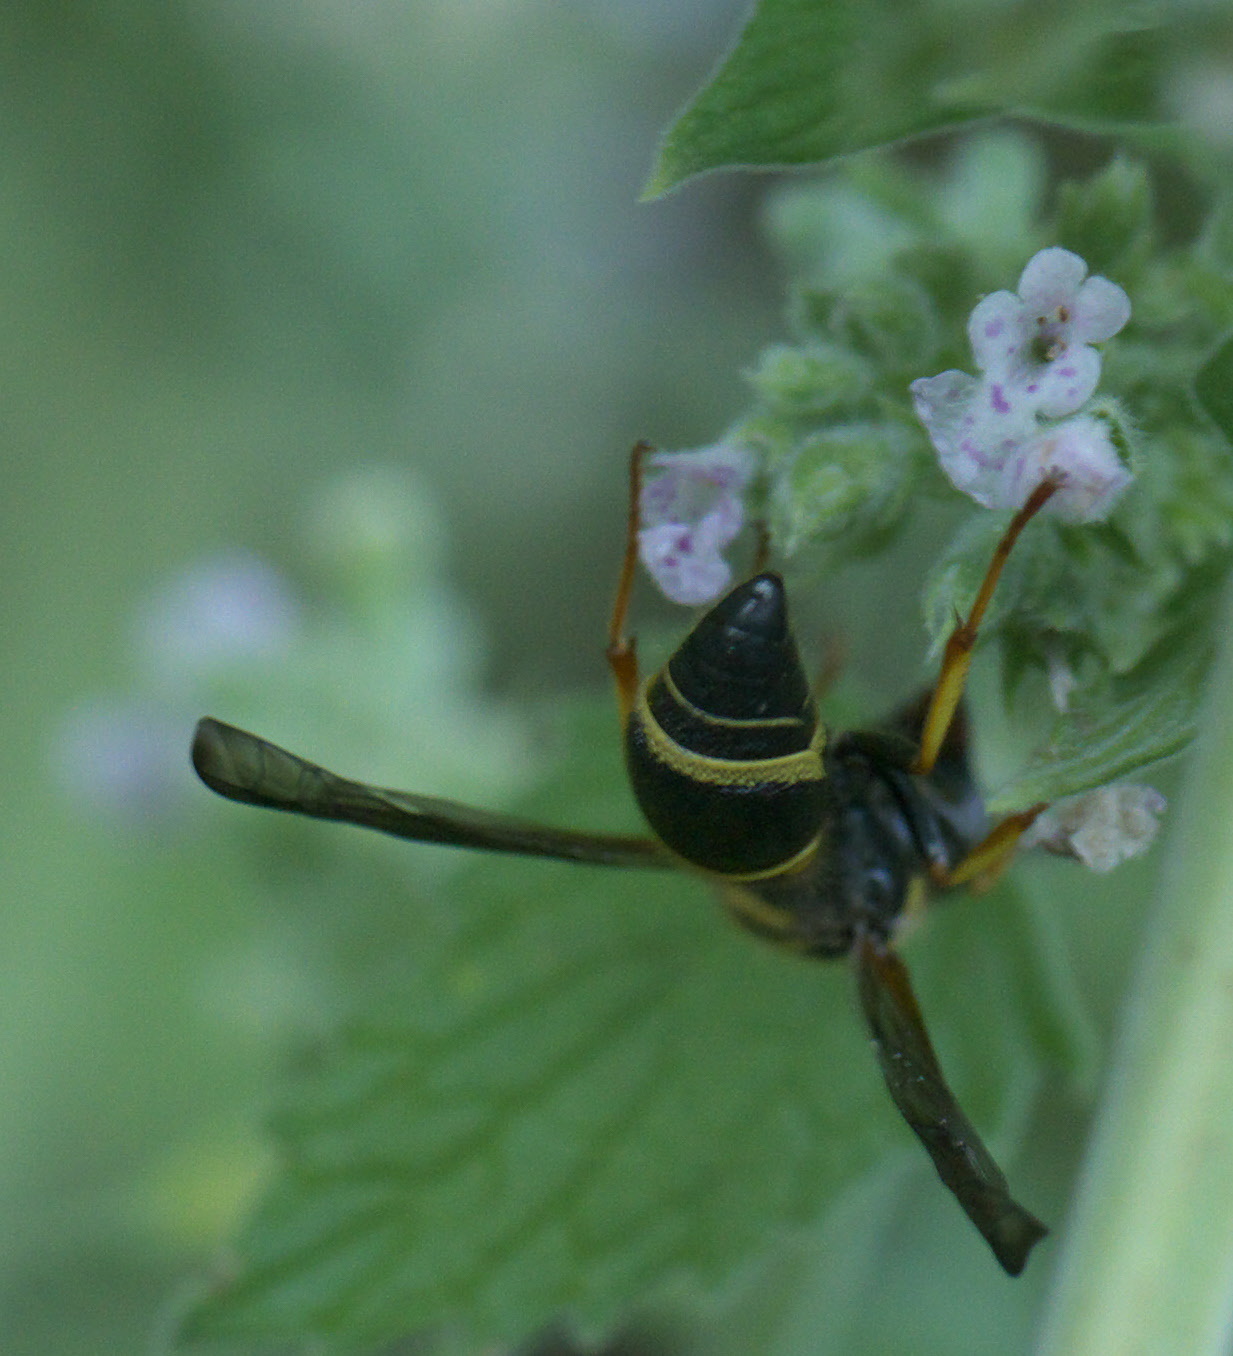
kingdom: Animalia
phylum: Arthropoda
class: Insecta
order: Hymenoptera
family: Vespidae
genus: Ancistrocerus
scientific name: Ancistrocerus campestris
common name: Smiling mason wasp
